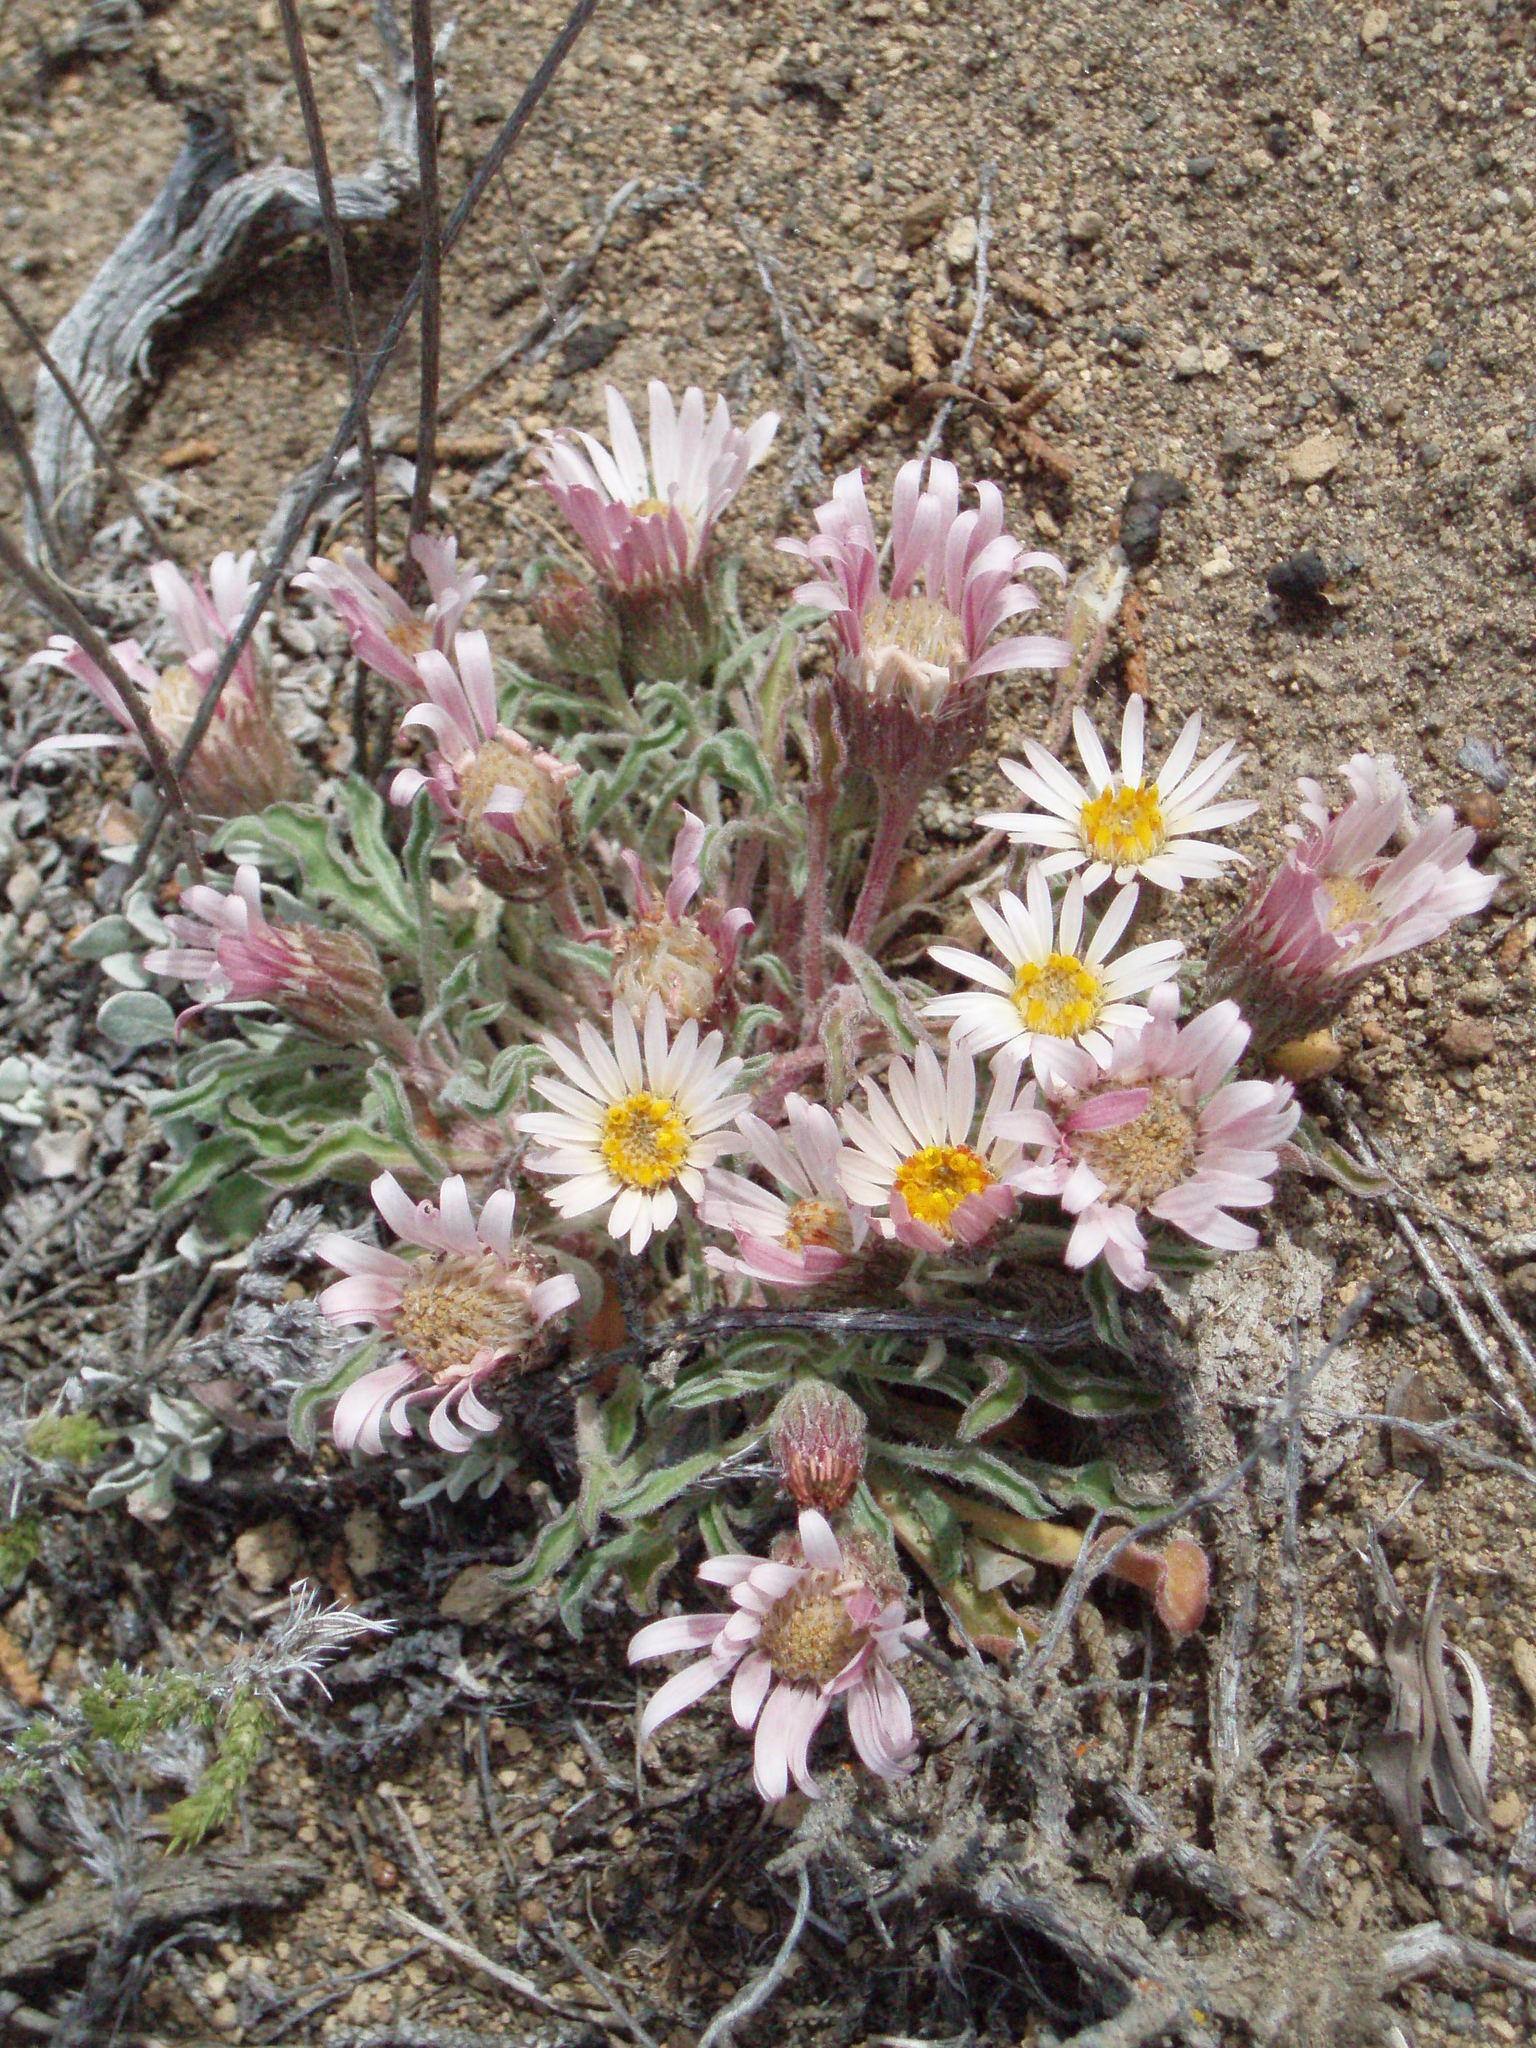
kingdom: Plantae
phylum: Tracheophyta
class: Magnoliopsida
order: Asterales
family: Asteraceae
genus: Townsendia
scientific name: Townsendia florifera
